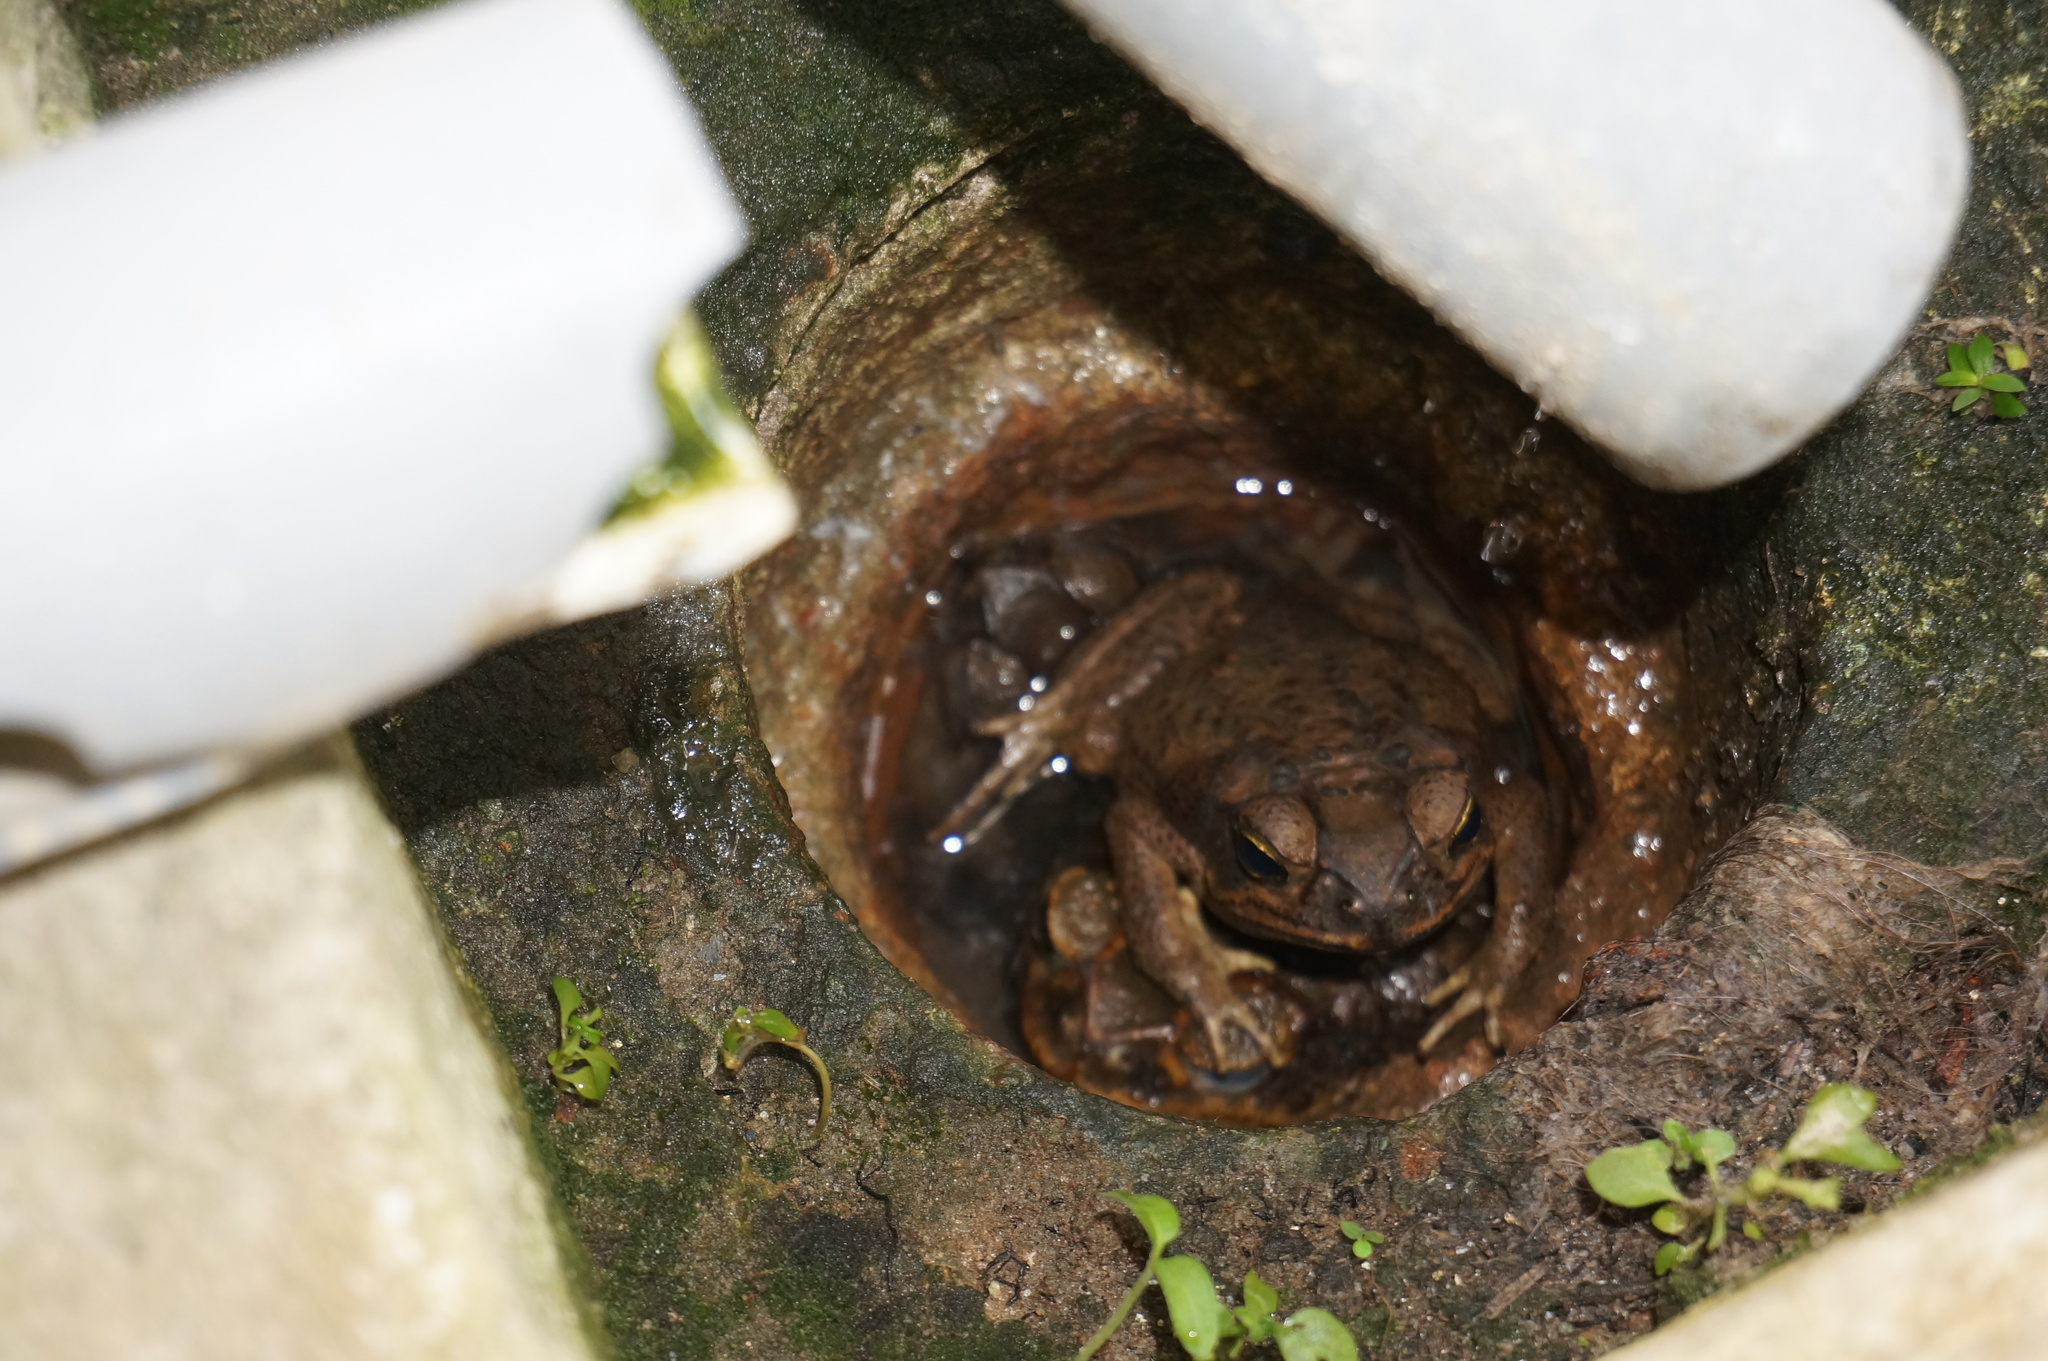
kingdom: Animalia
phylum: Chordata
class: Amphibia
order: Anura
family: Bufonidae
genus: Rhinella
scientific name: Rhinella marina
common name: Cane toad
